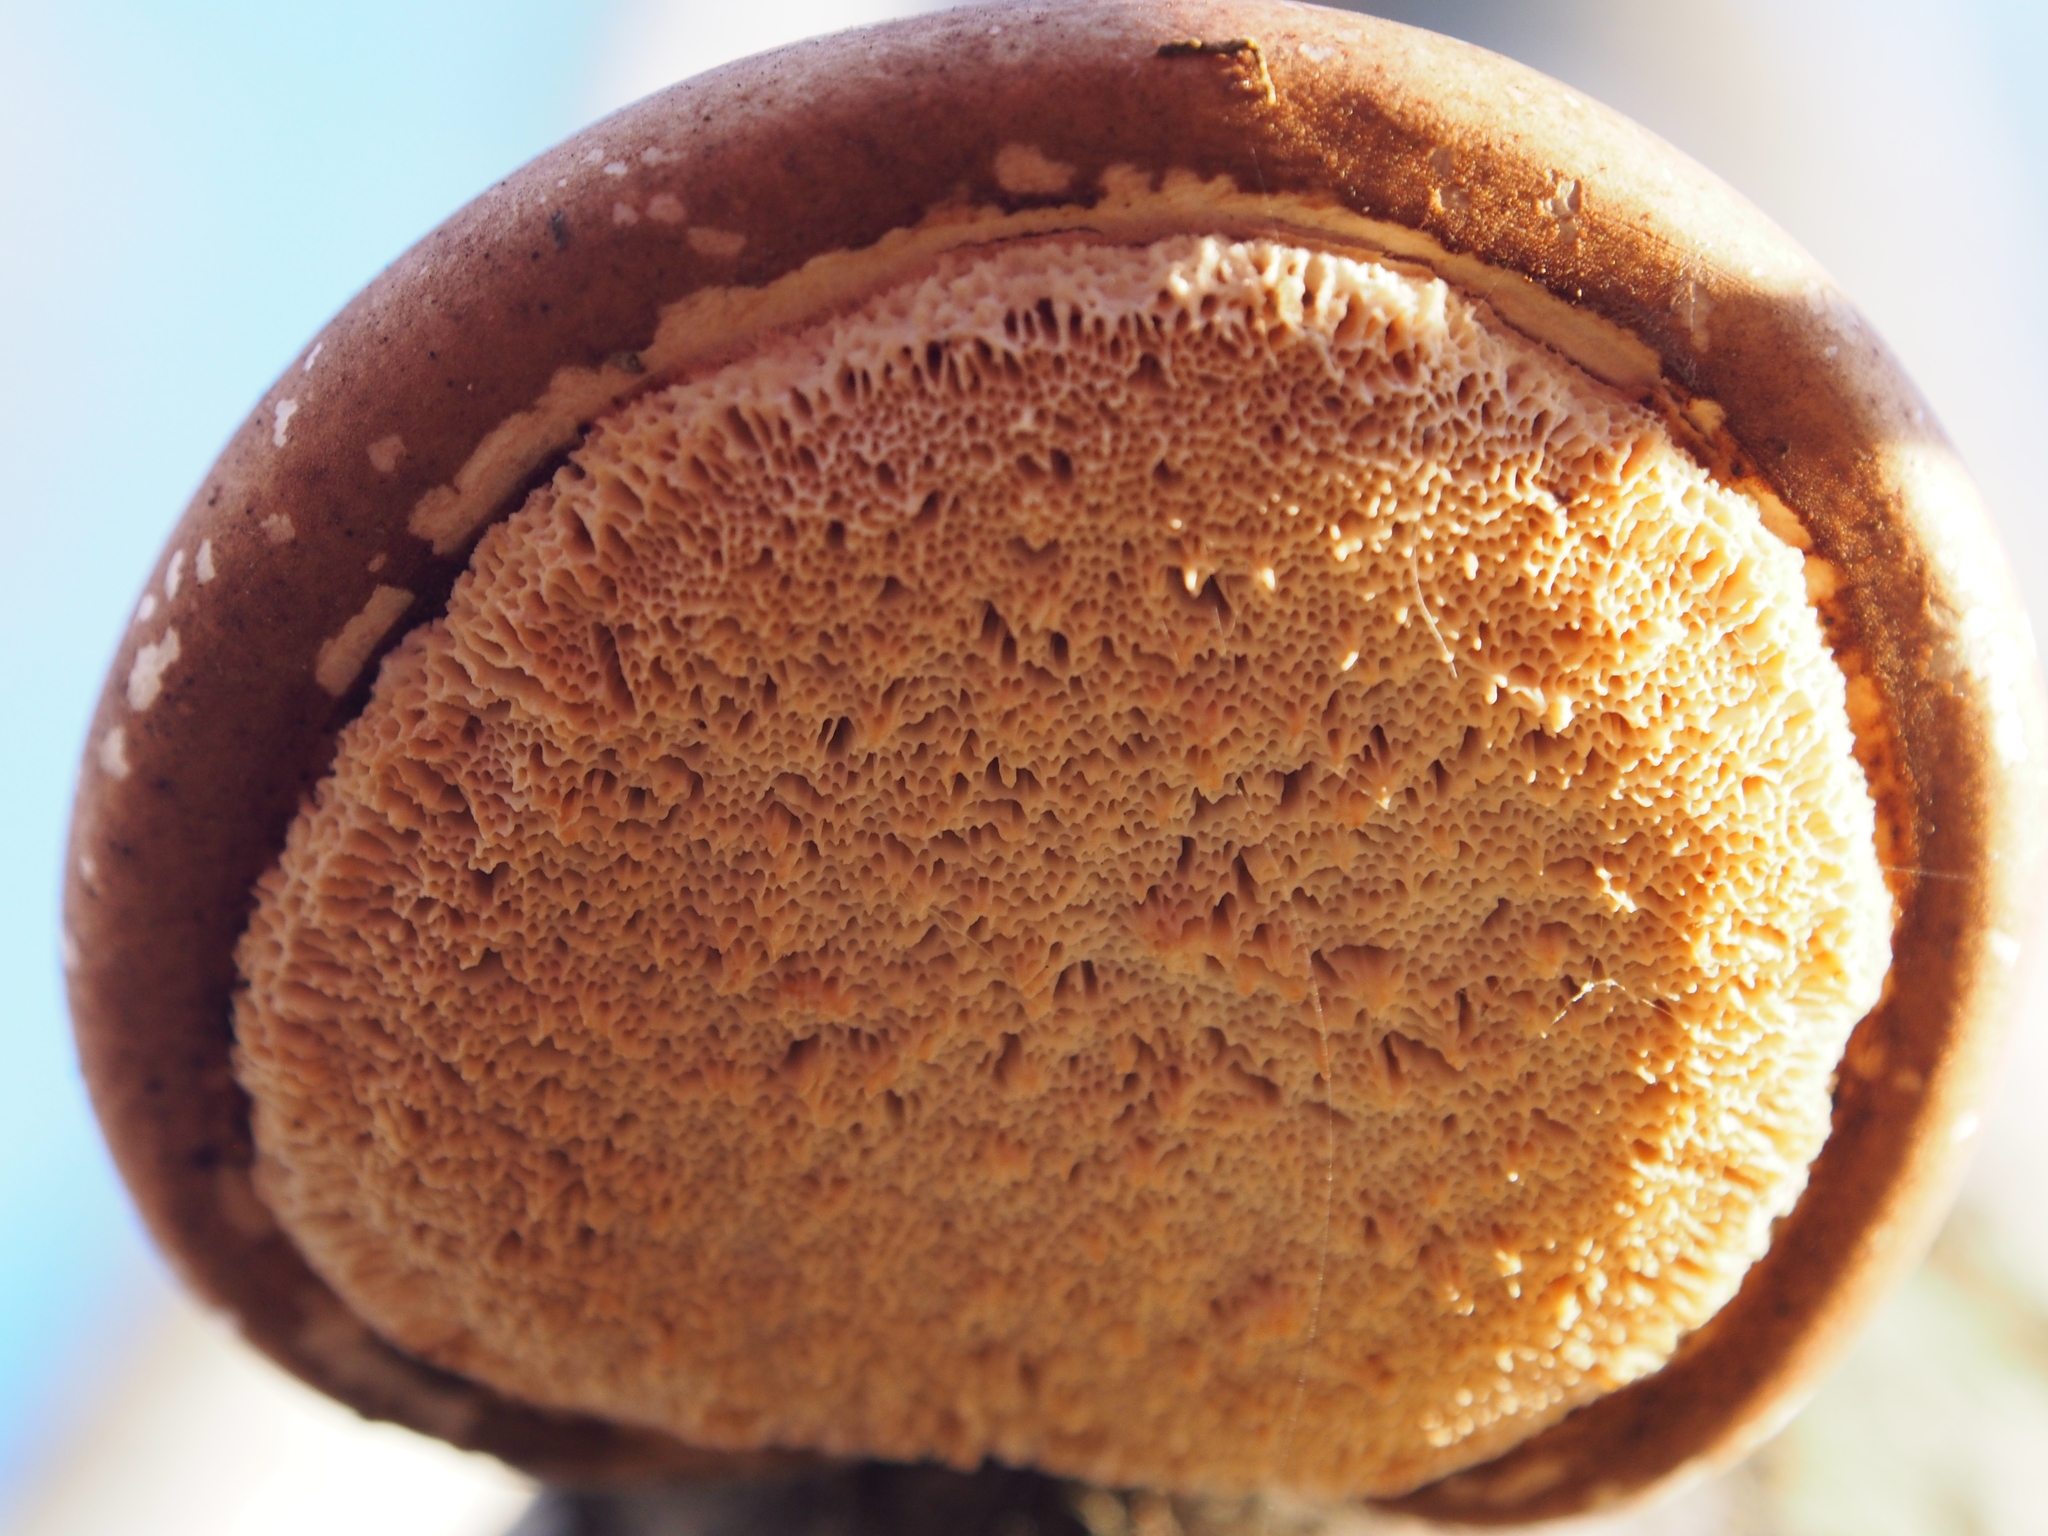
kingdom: Fungi
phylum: Basidiomycota
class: Agaricomycetes
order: Polyporales
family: Fomitopsidaceae
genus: Fomitopsis
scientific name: Fomitopsis betulina
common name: Birch polypore
